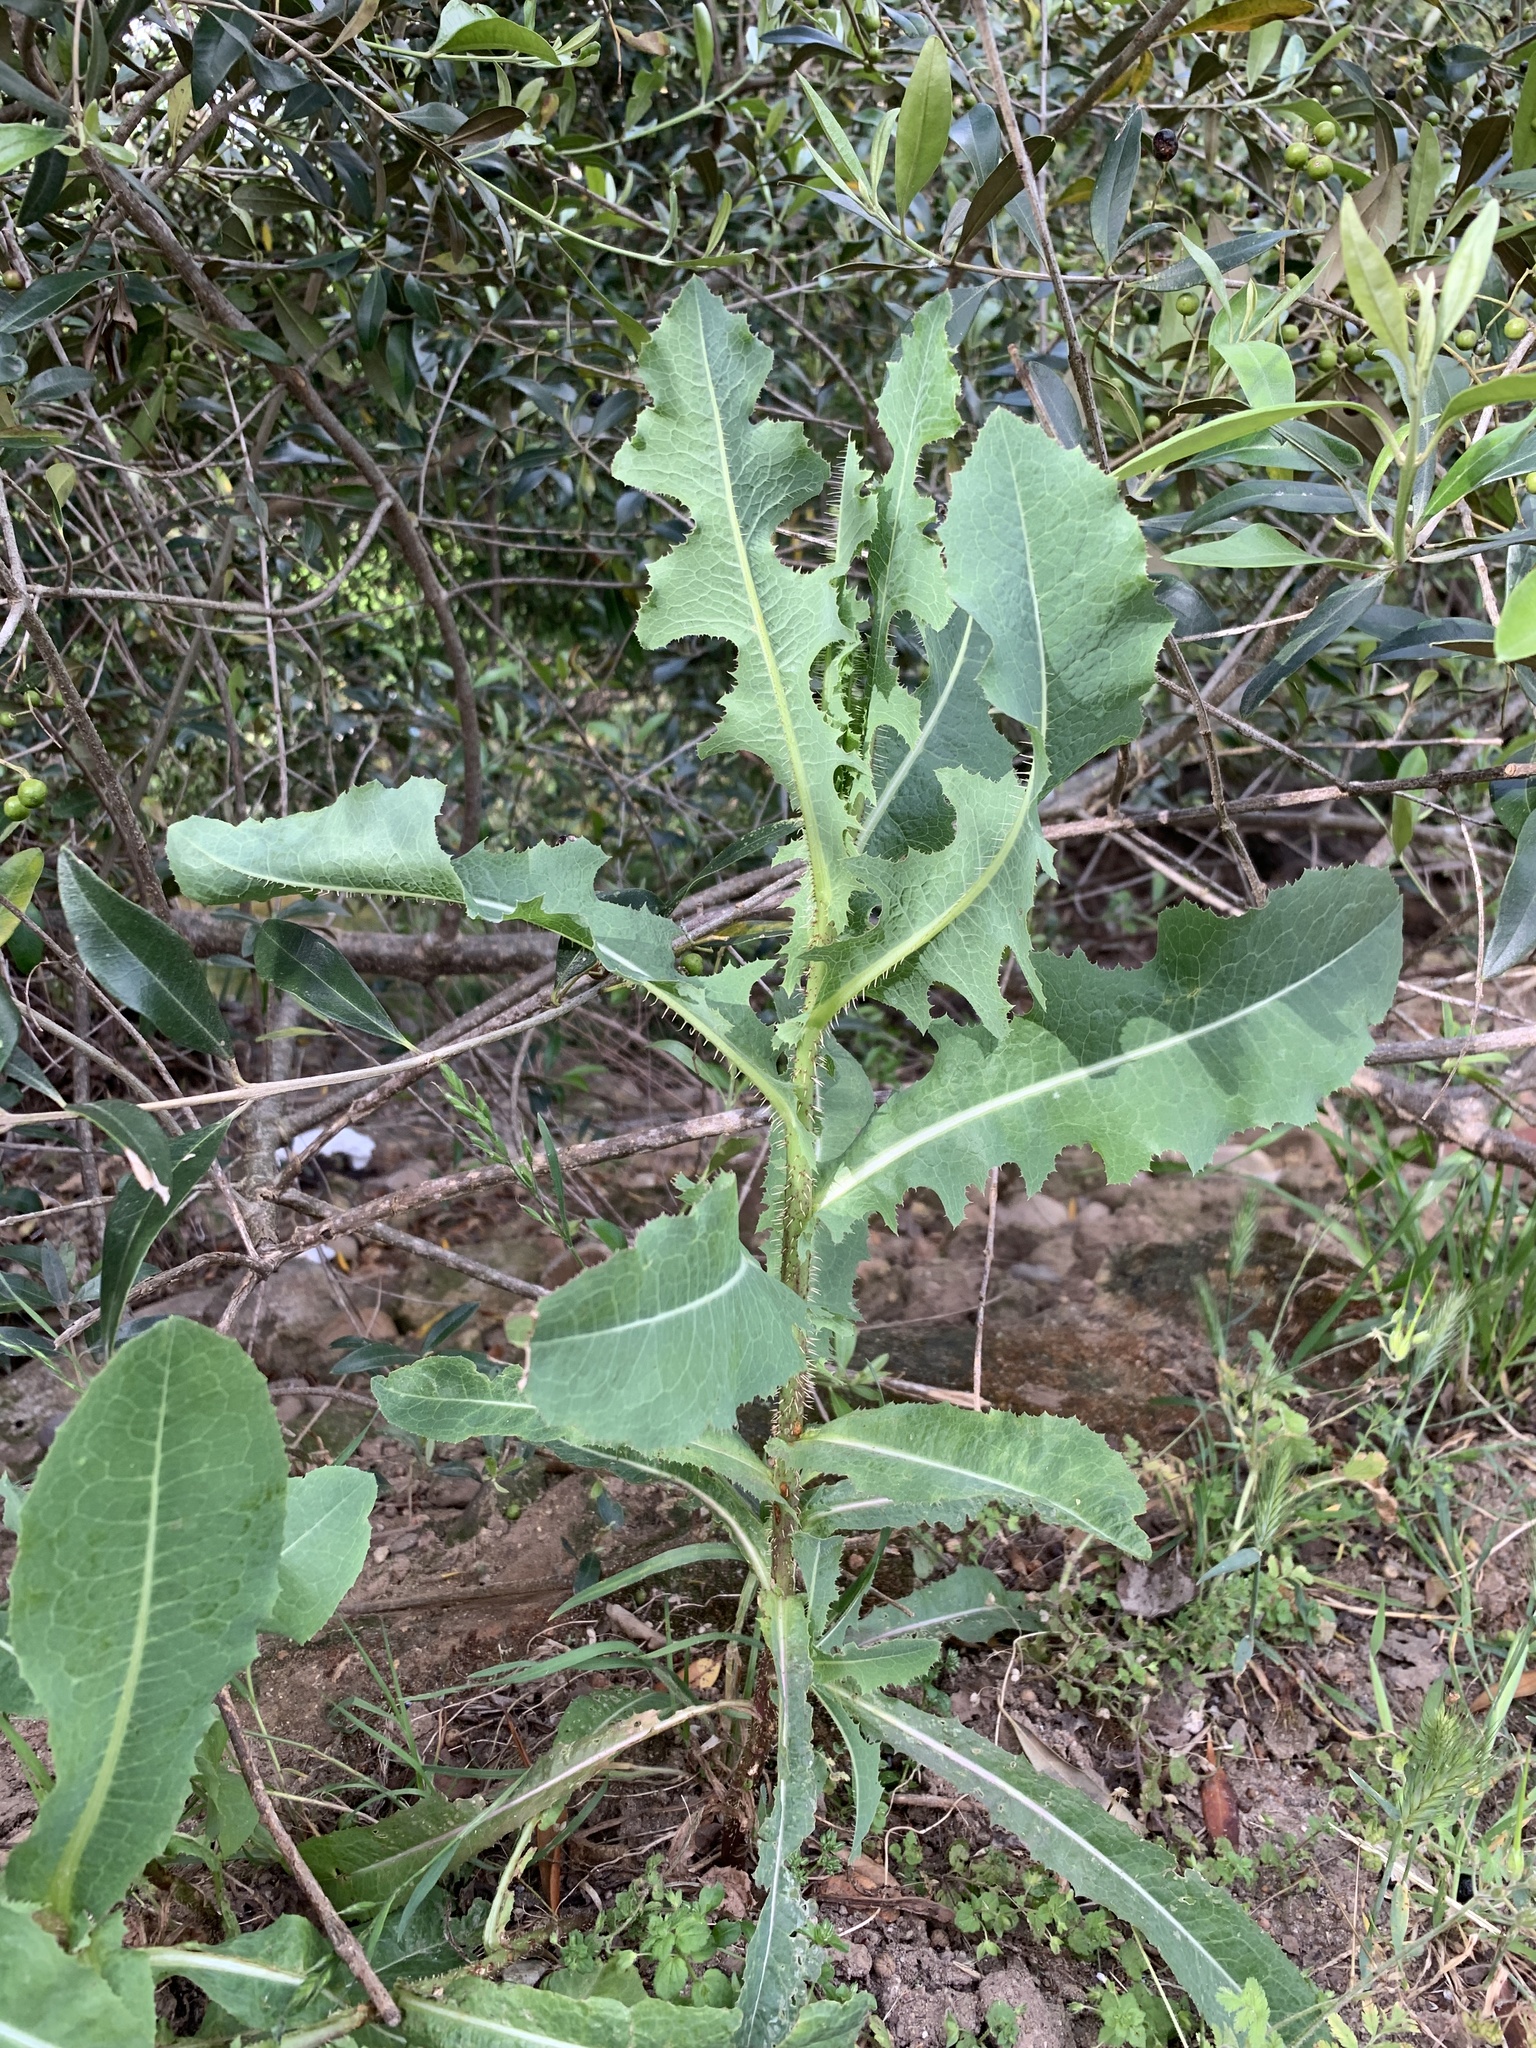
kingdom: Plantae
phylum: Tracheophyta
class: Magnoliopsida
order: Asterales
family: Asteraceae
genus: Lactuca
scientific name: Lactuca serriola
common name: Prickly lettuce
